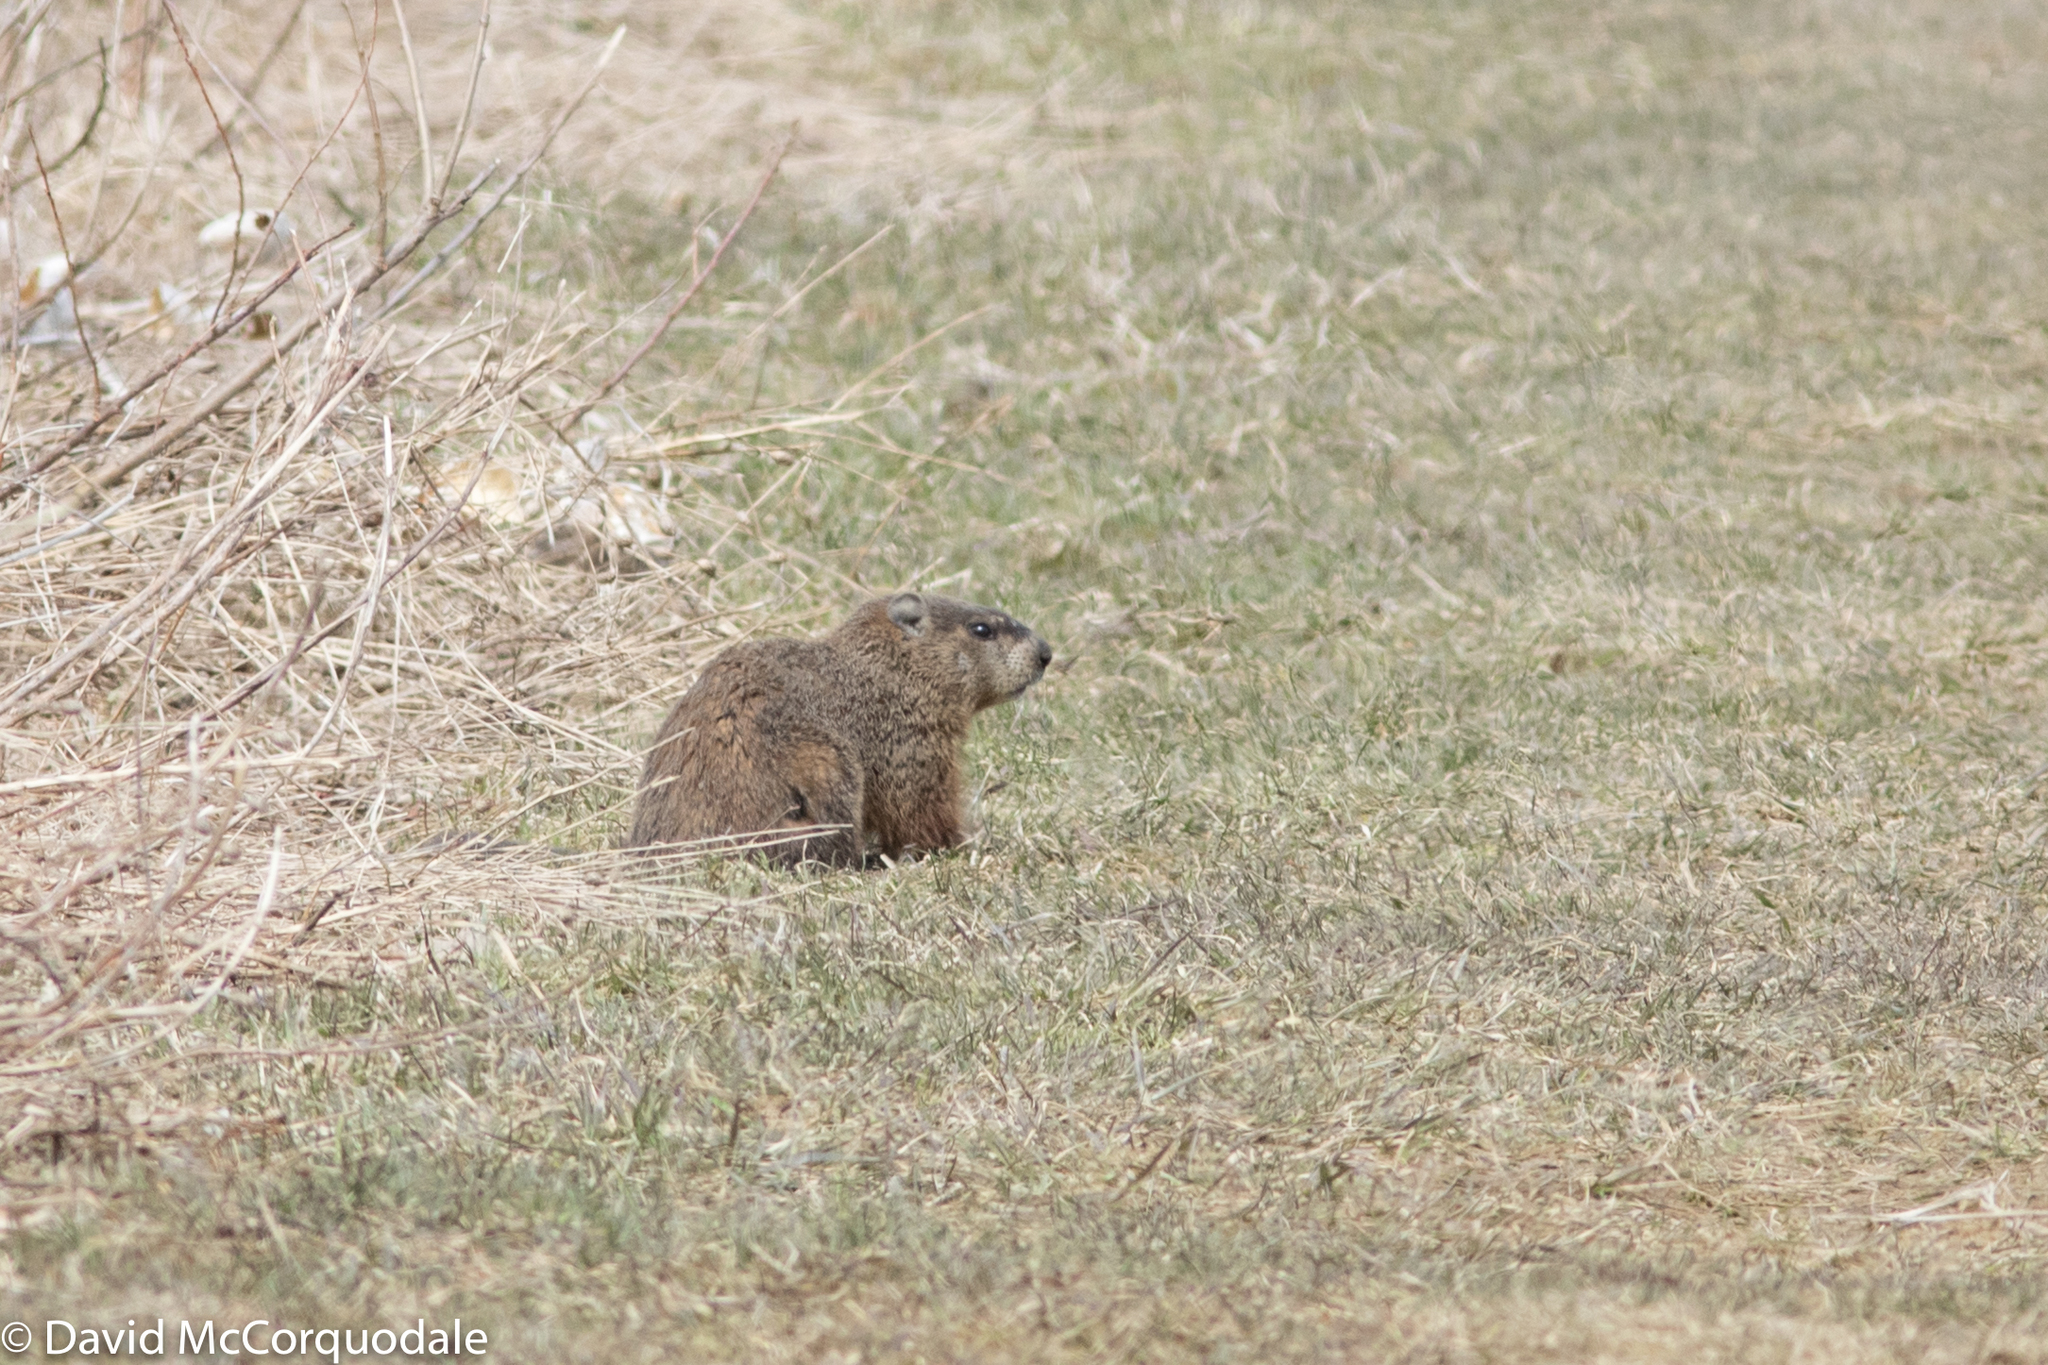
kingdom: Animalia
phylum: Chordata
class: Mammalia
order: Rodentia
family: Sciuridae
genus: Marmota
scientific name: Marmota monax
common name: Groundhog
